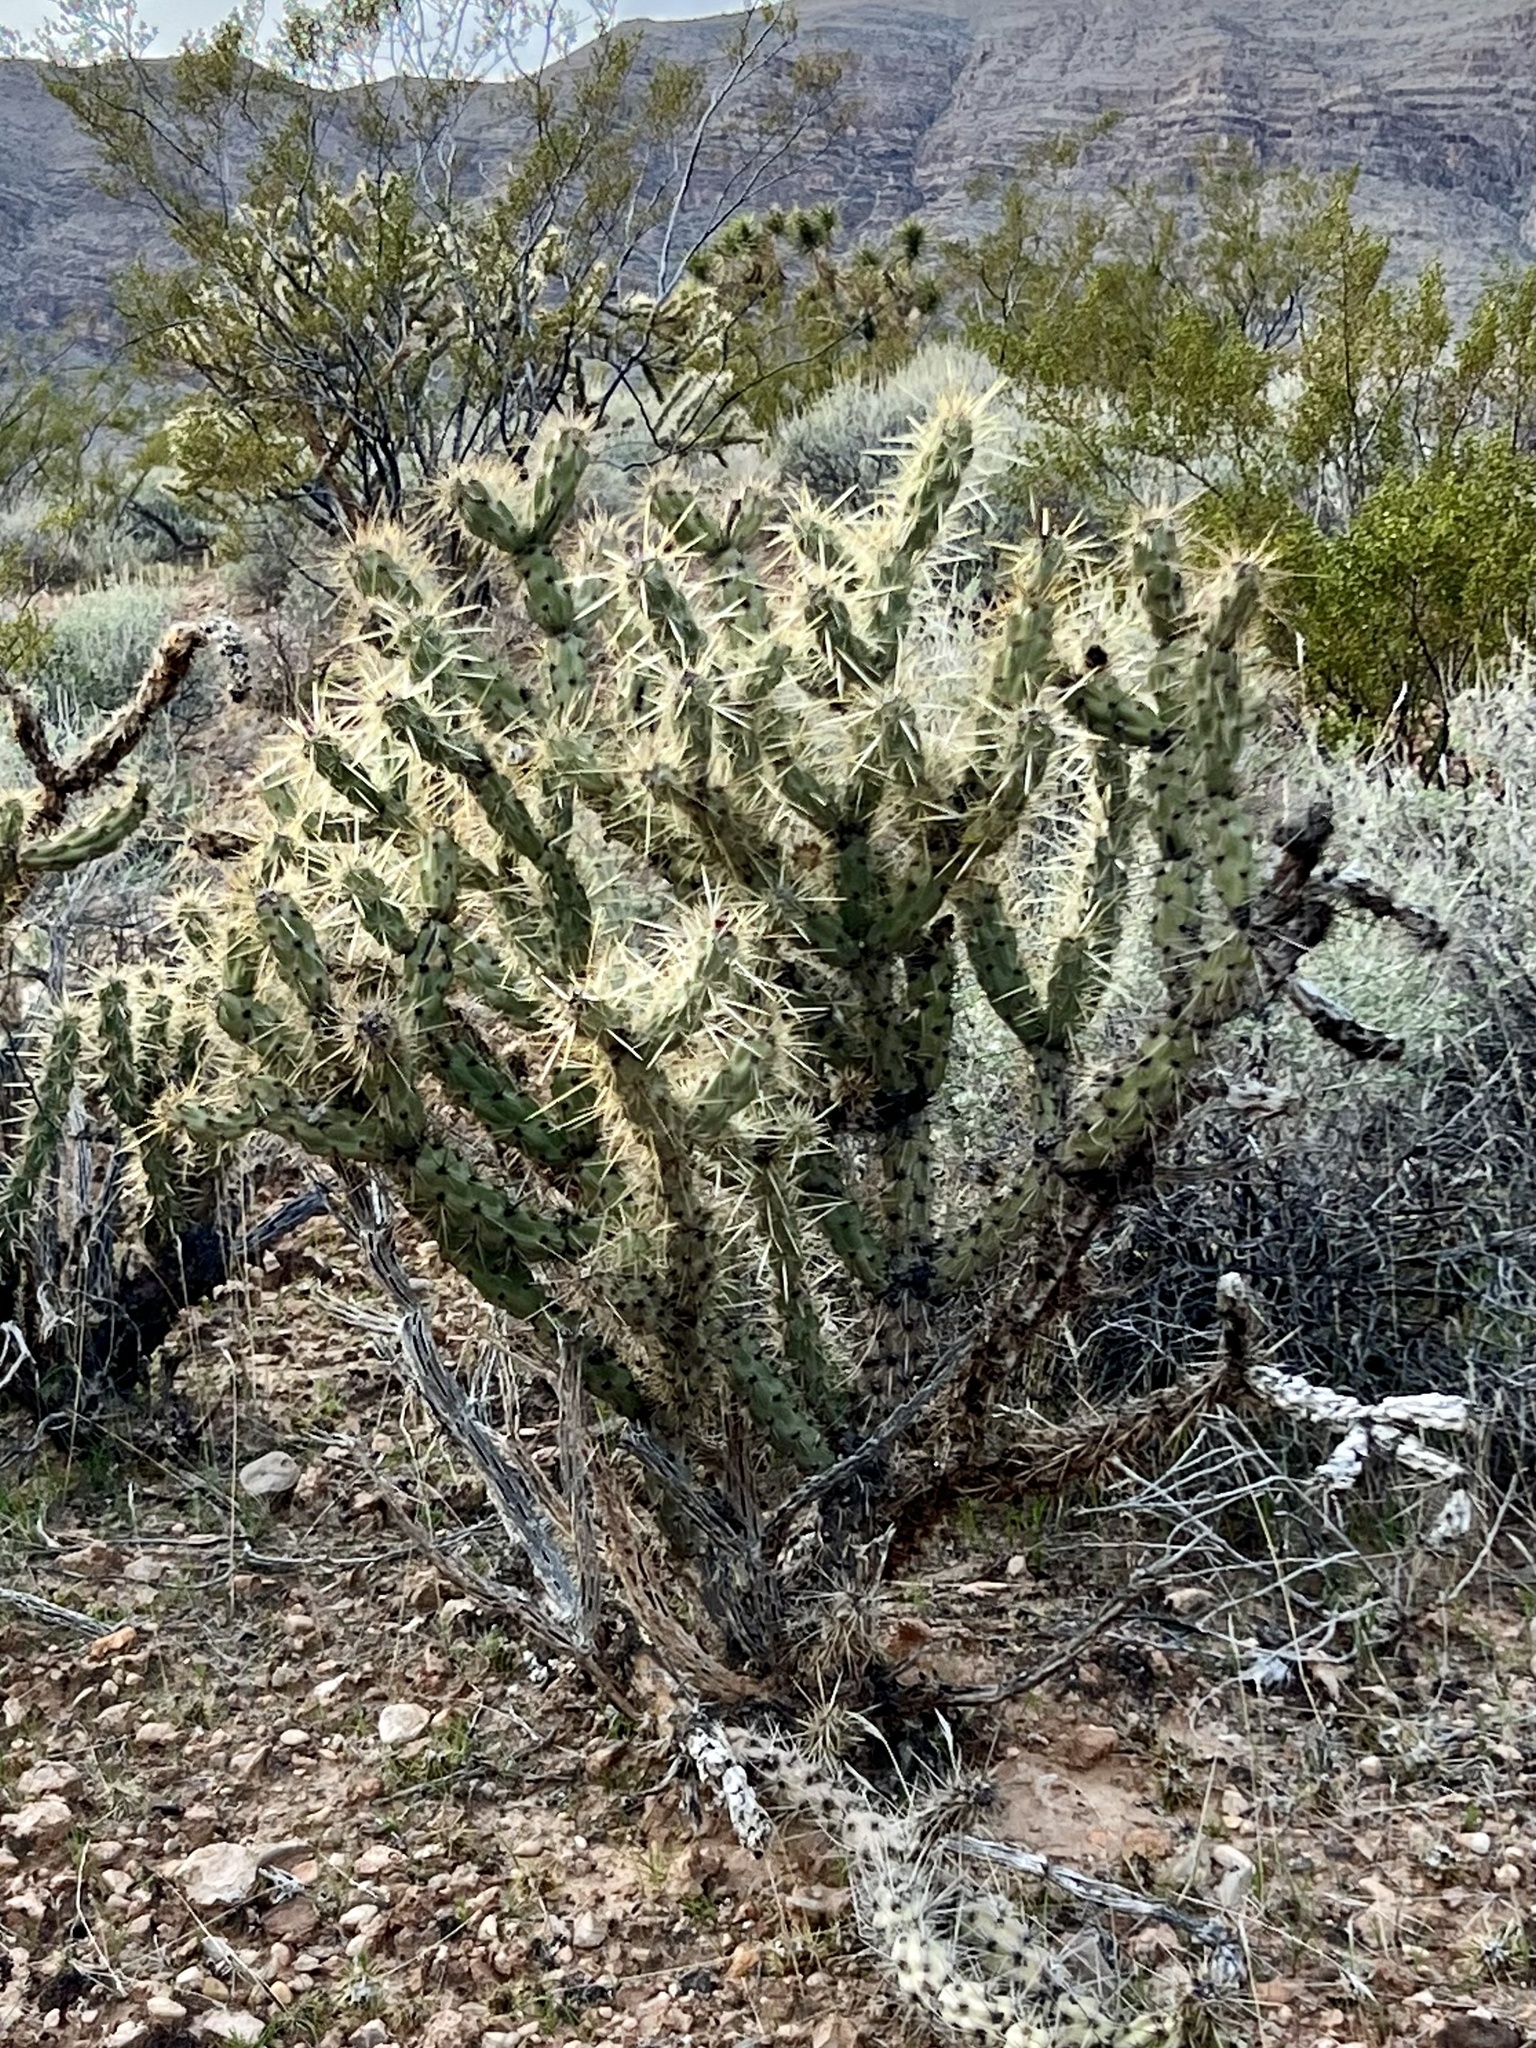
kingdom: Plantae
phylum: Tracheophyta
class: Magnoliopsida
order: Caryophyllales
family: Cactaceae
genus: Cylindropuntia
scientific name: Cylindropuntia acanthocarpa
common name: Buckhorn cholla
